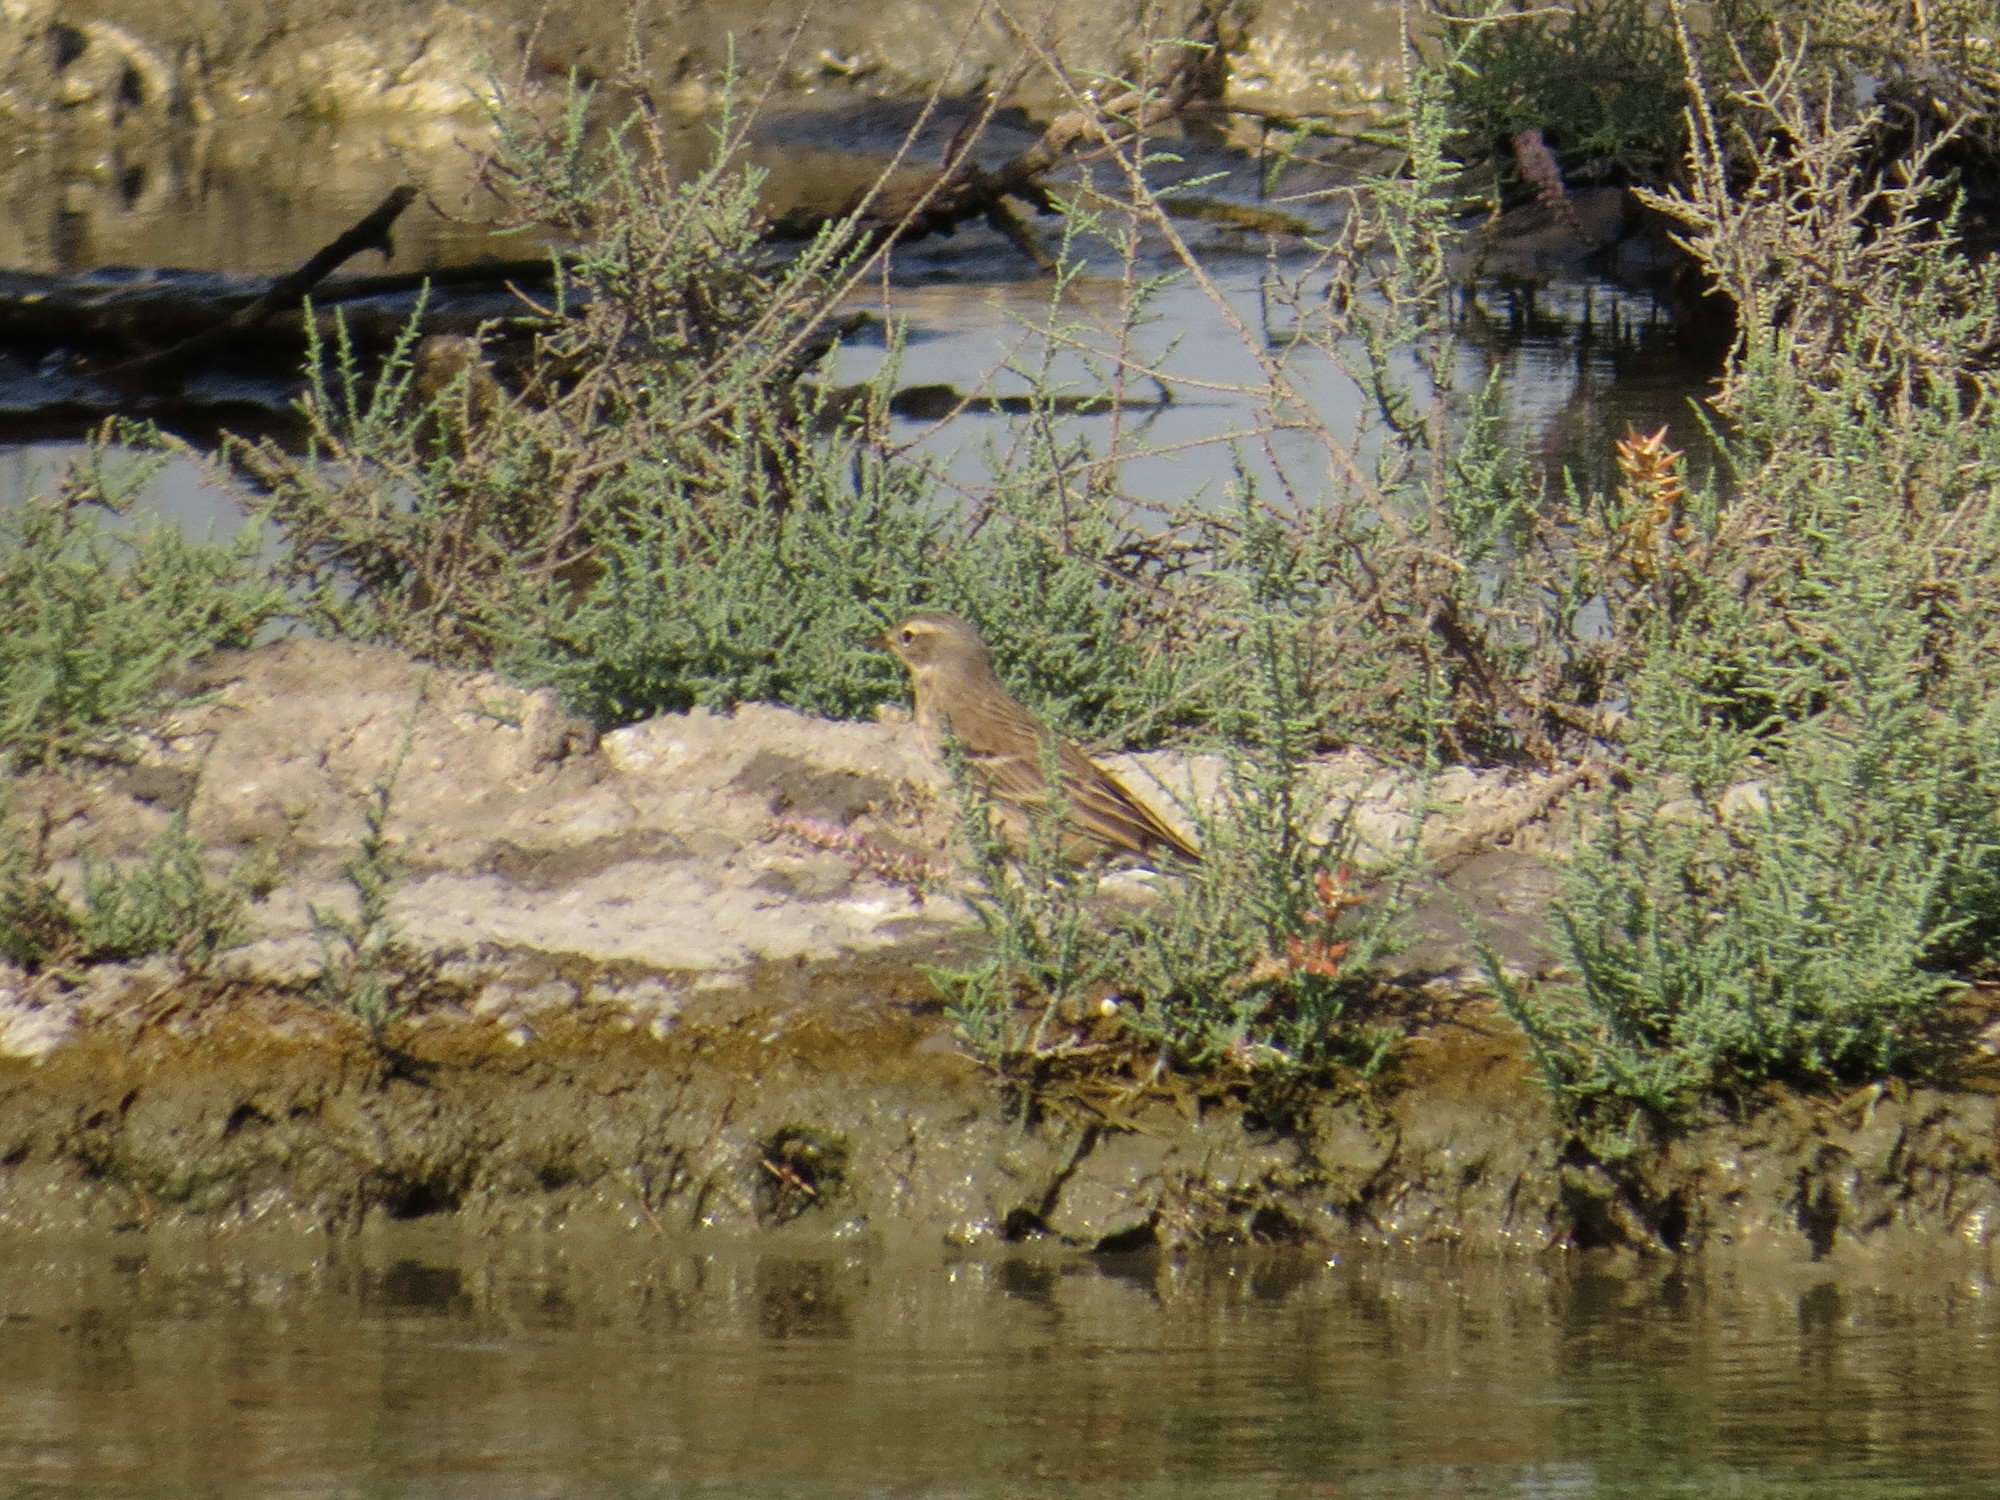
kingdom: Animalia
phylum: Chordata
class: Aves
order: Passeriformes
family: Motacillidae
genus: Anthus
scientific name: Anthus spinoletta
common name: Water pipit
